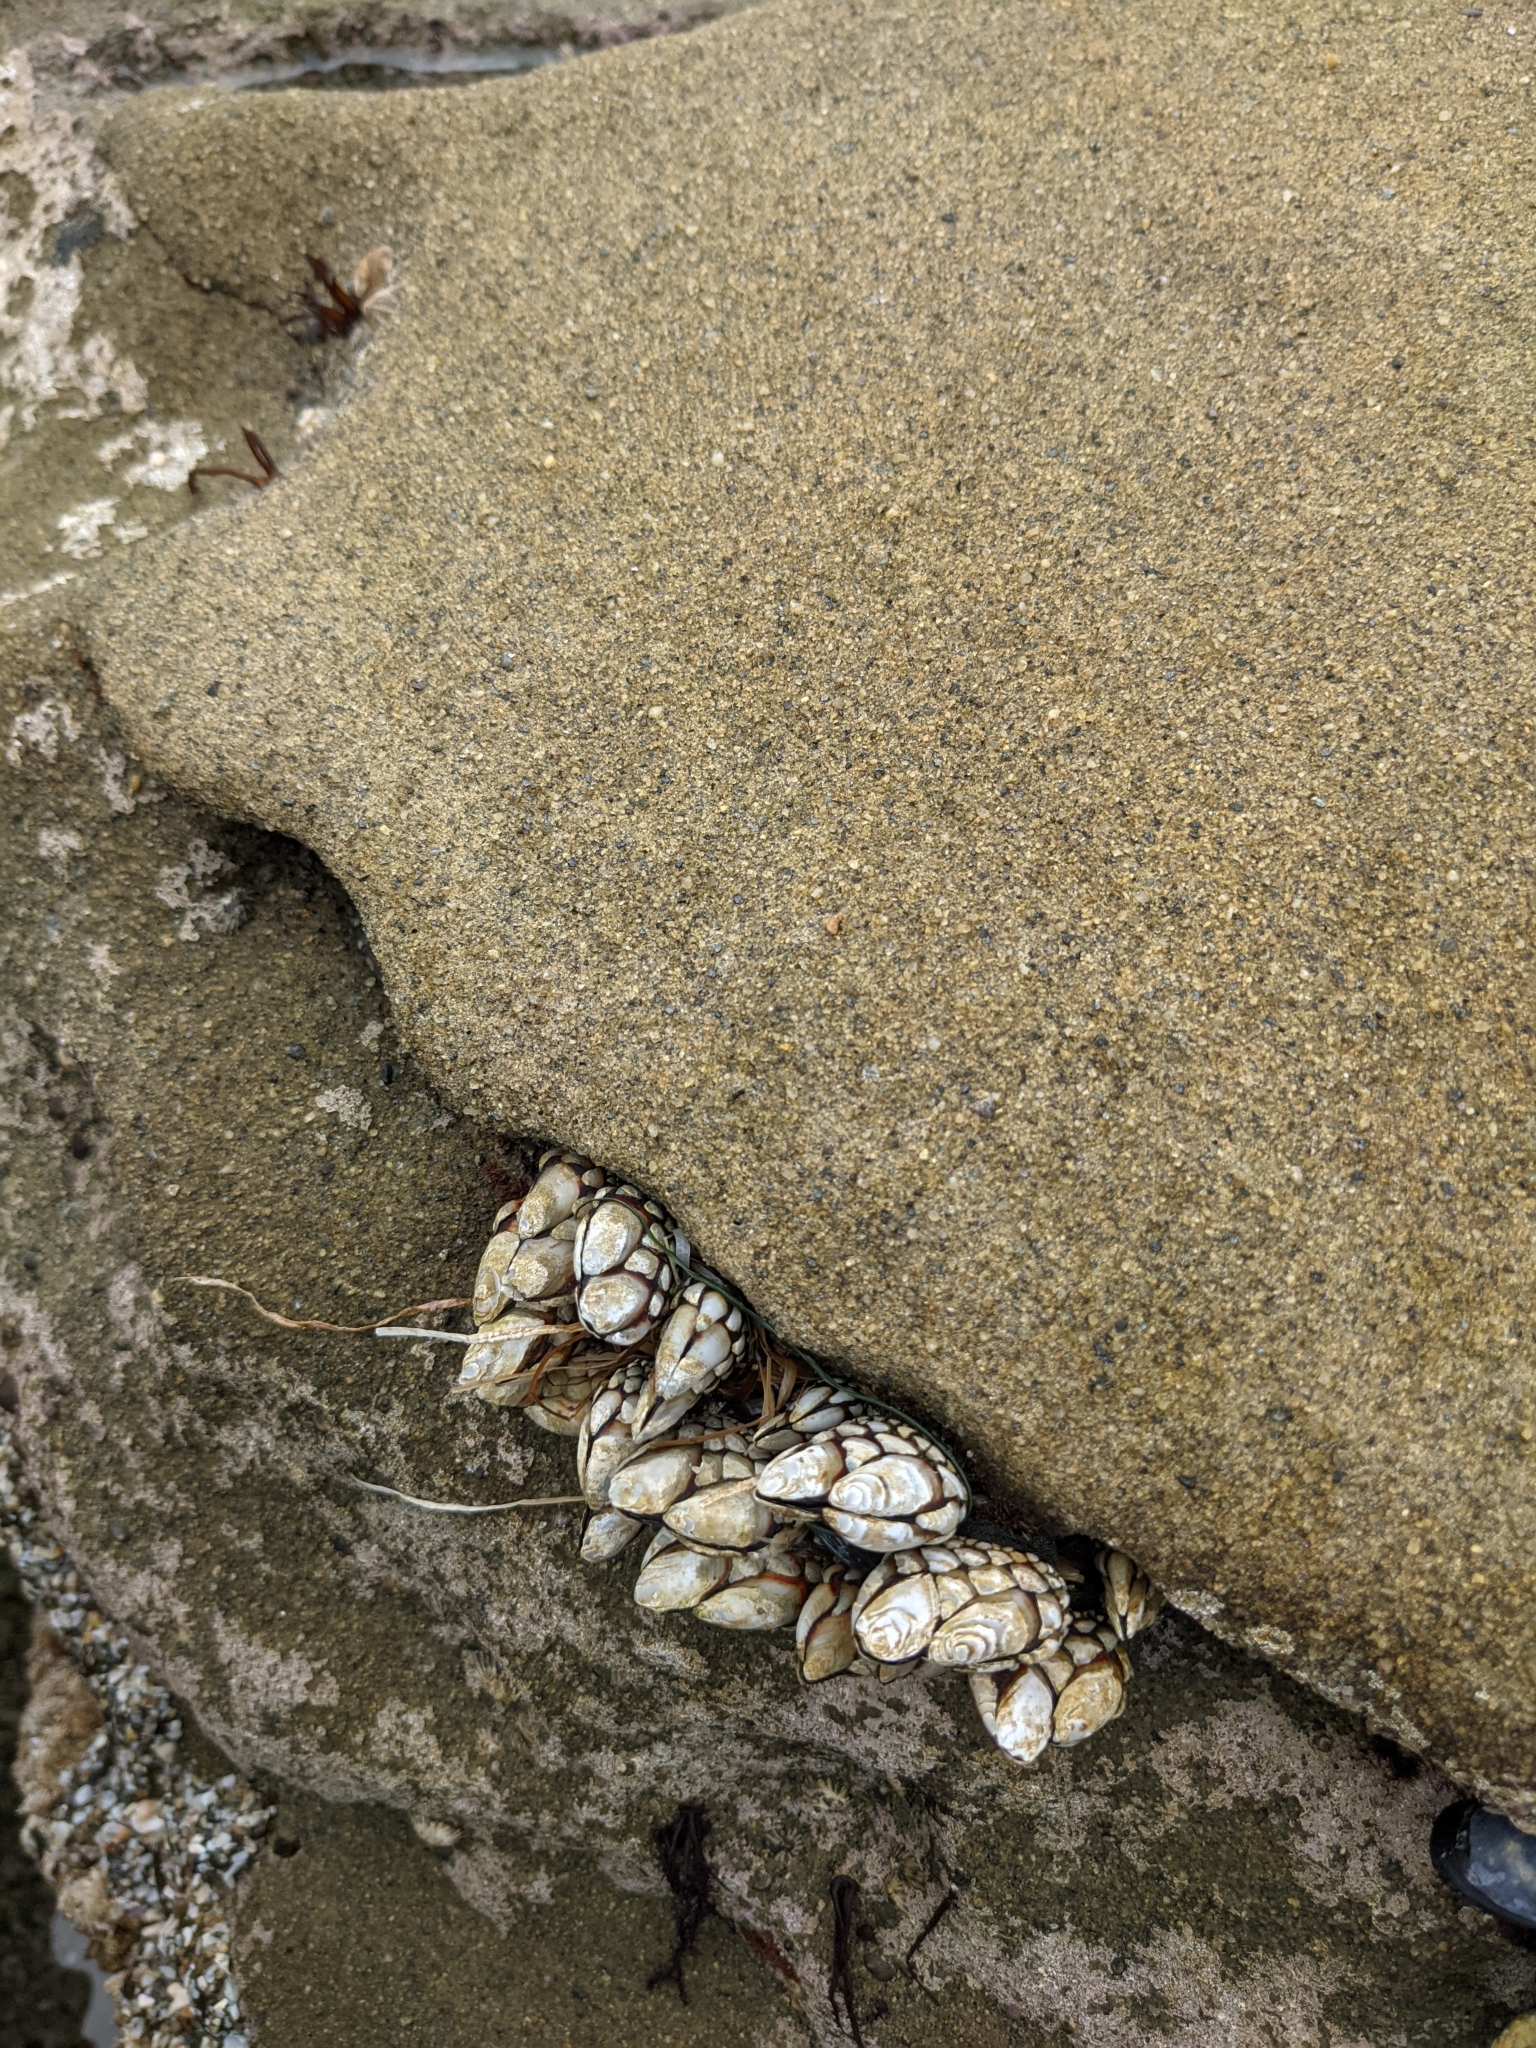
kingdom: Animalia
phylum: Arthropoda
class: Maxillopoda
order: Pedunculata
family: Pollicipedidae
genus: Pollicipes
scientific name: Pollicipes polymerus
